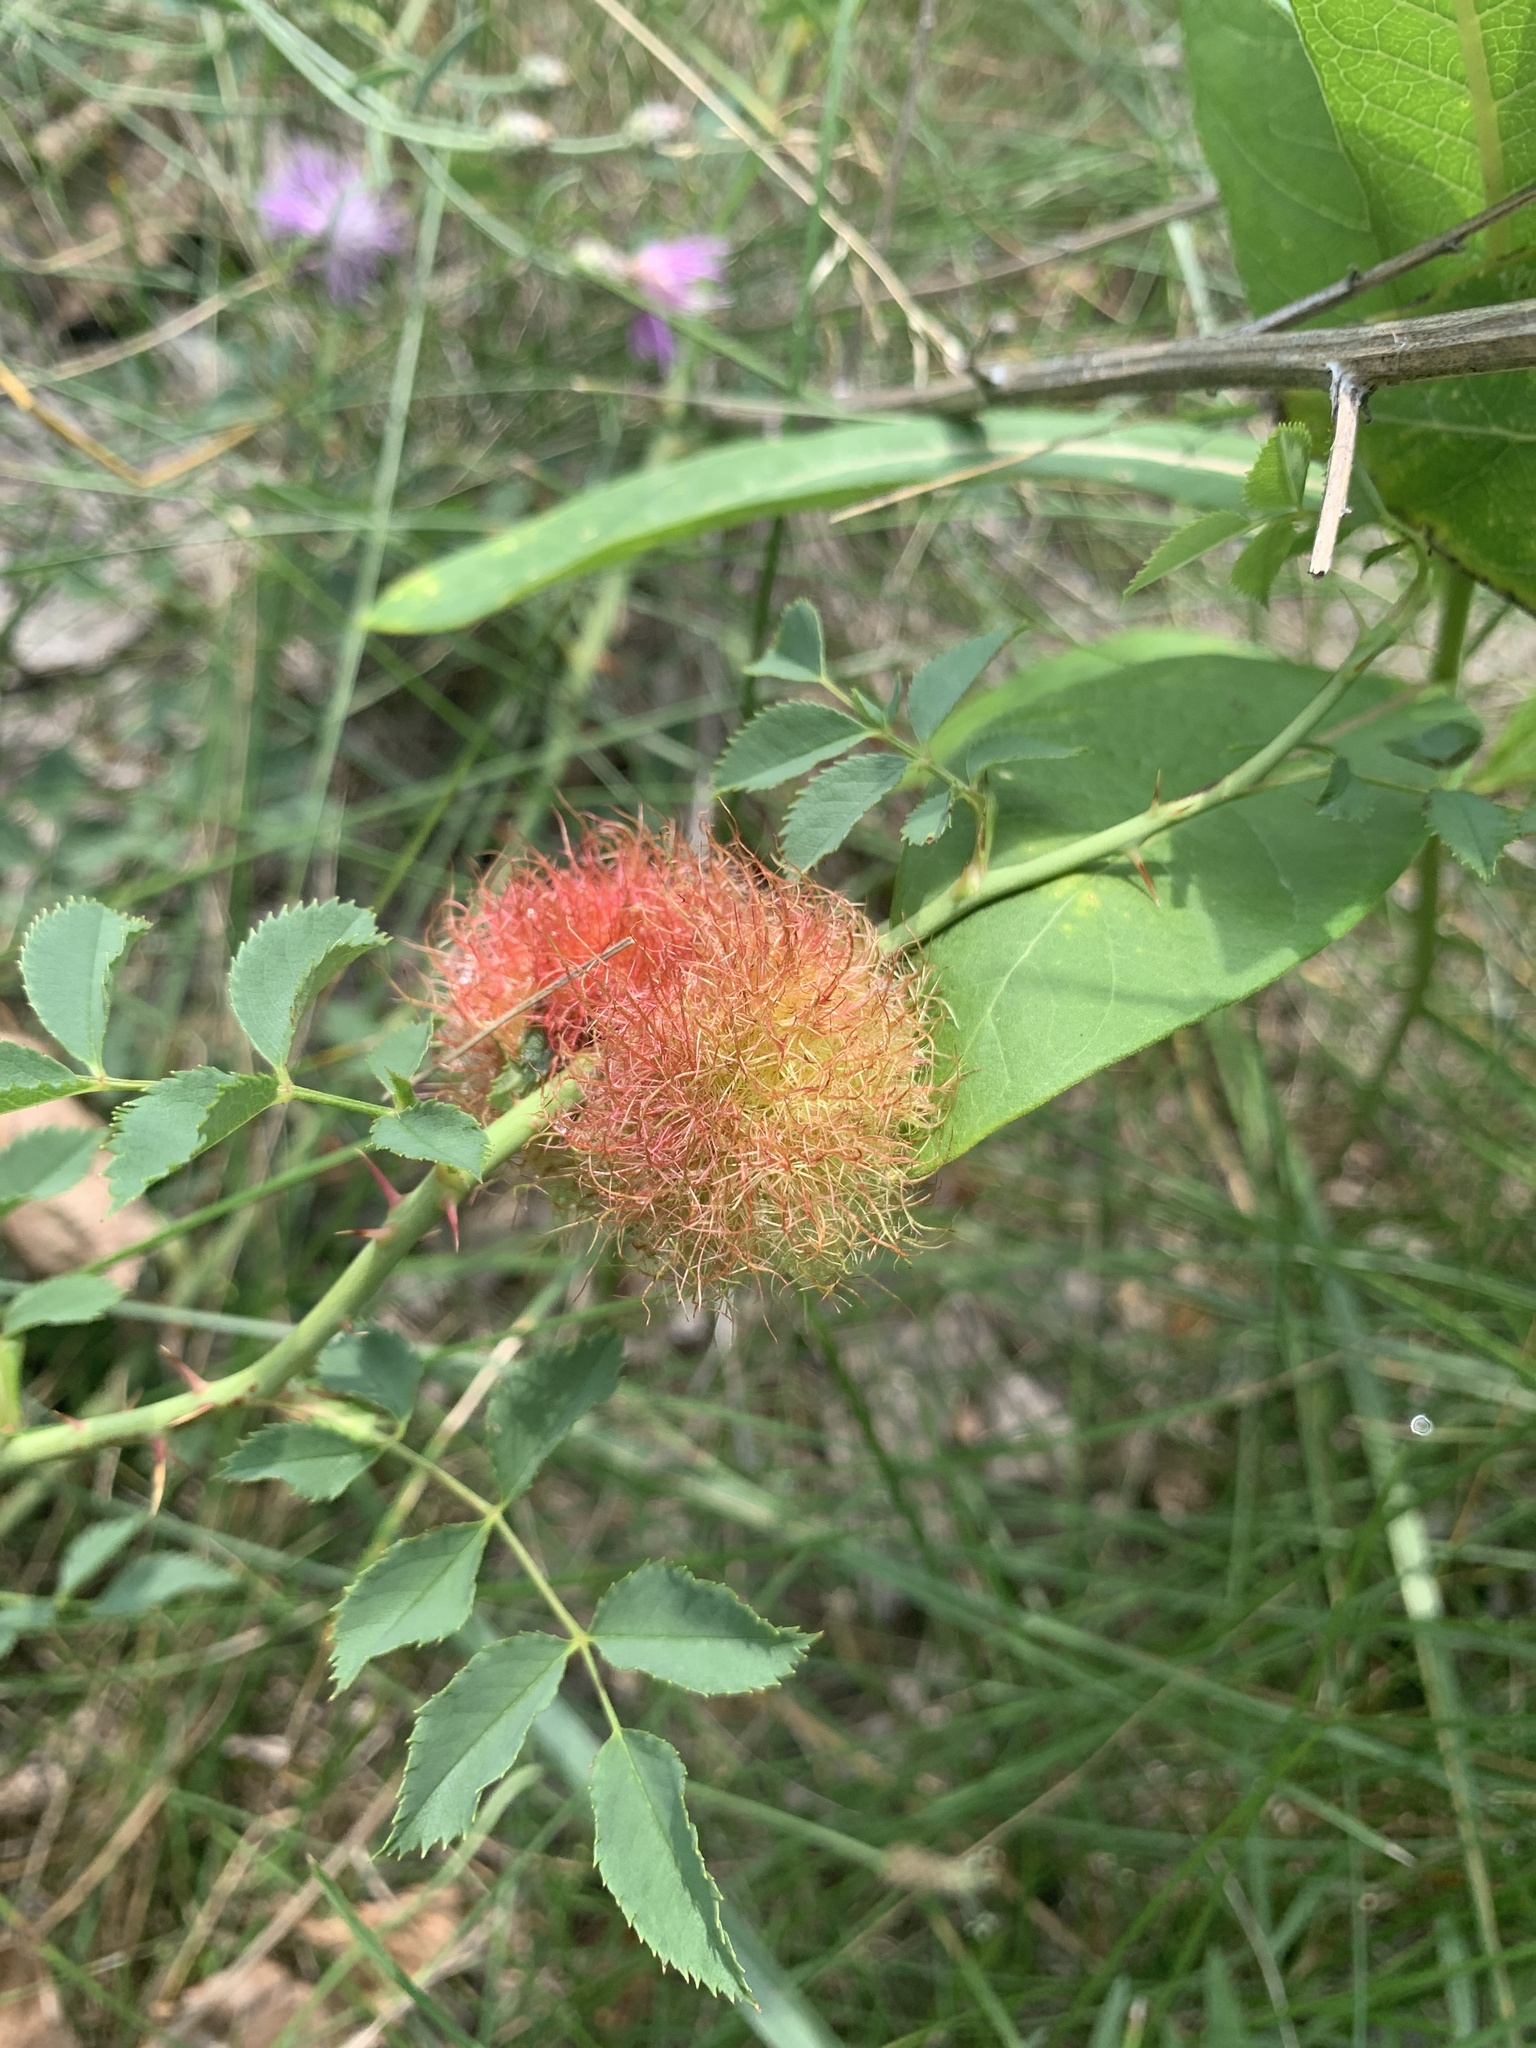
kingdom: Animalia
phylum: Arthropoda
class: Insecta
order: Hymenoptera
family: Cynipidae
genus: Diplolepis
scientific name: Diplolepis rosae
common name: Bedeguar gall
